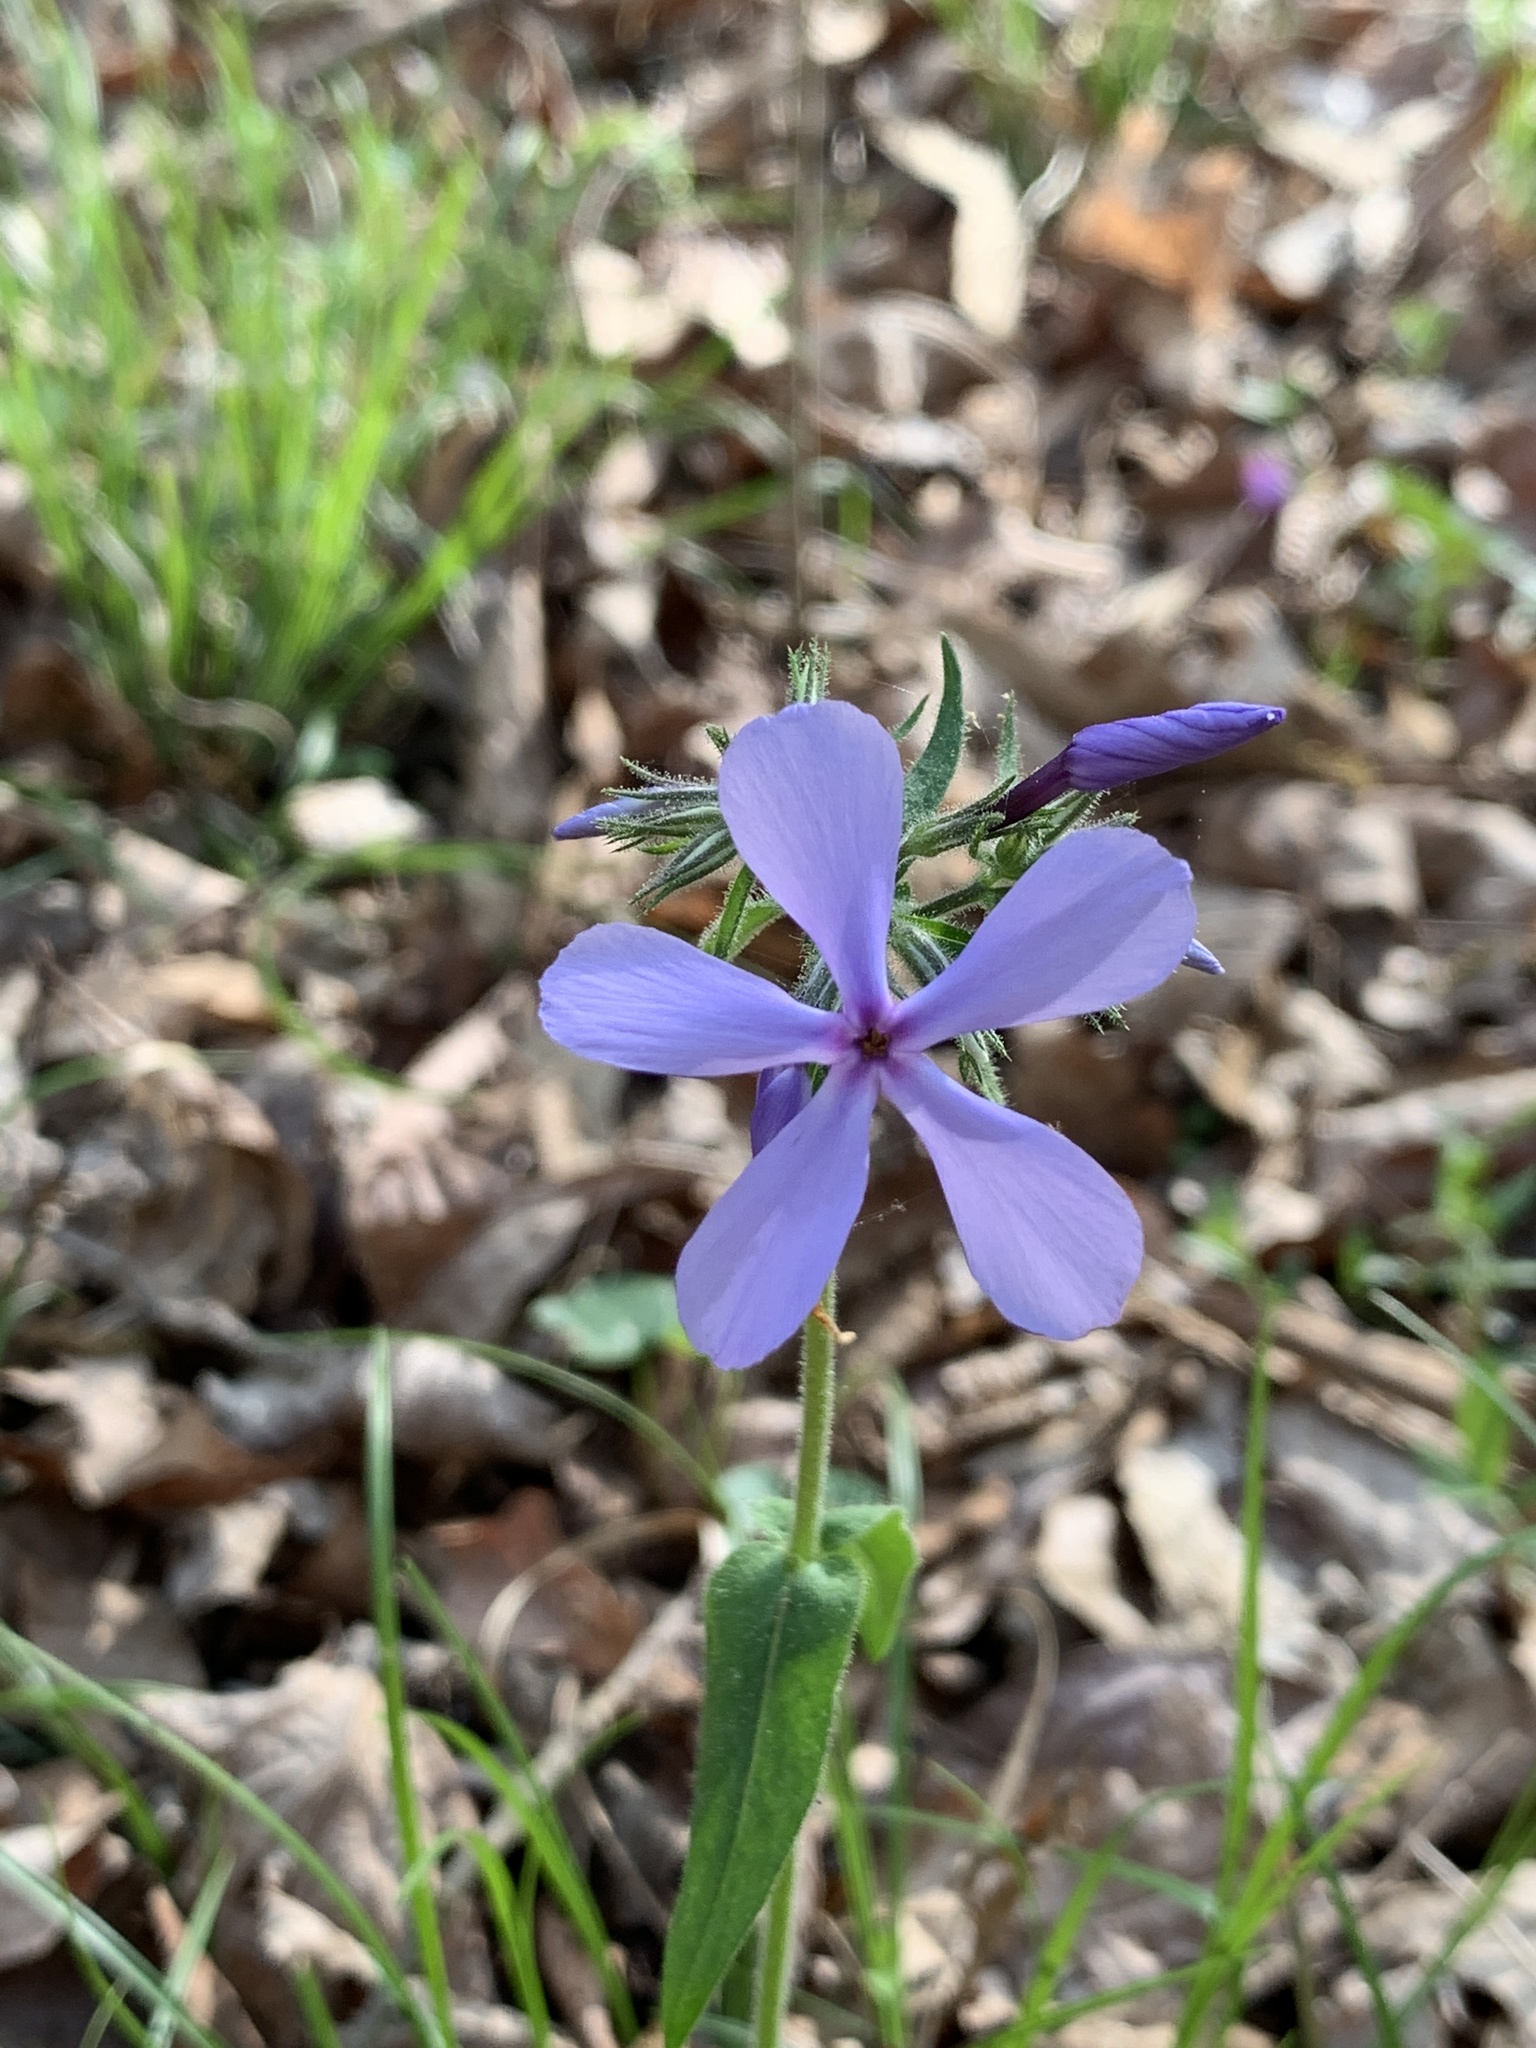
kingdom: Plantae
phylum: Tracheophyta
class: Magnoliopsida
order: Ericales
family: Polemoniaceae
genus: Phlox
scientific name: Phlox divaricata
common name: Blue phlox
